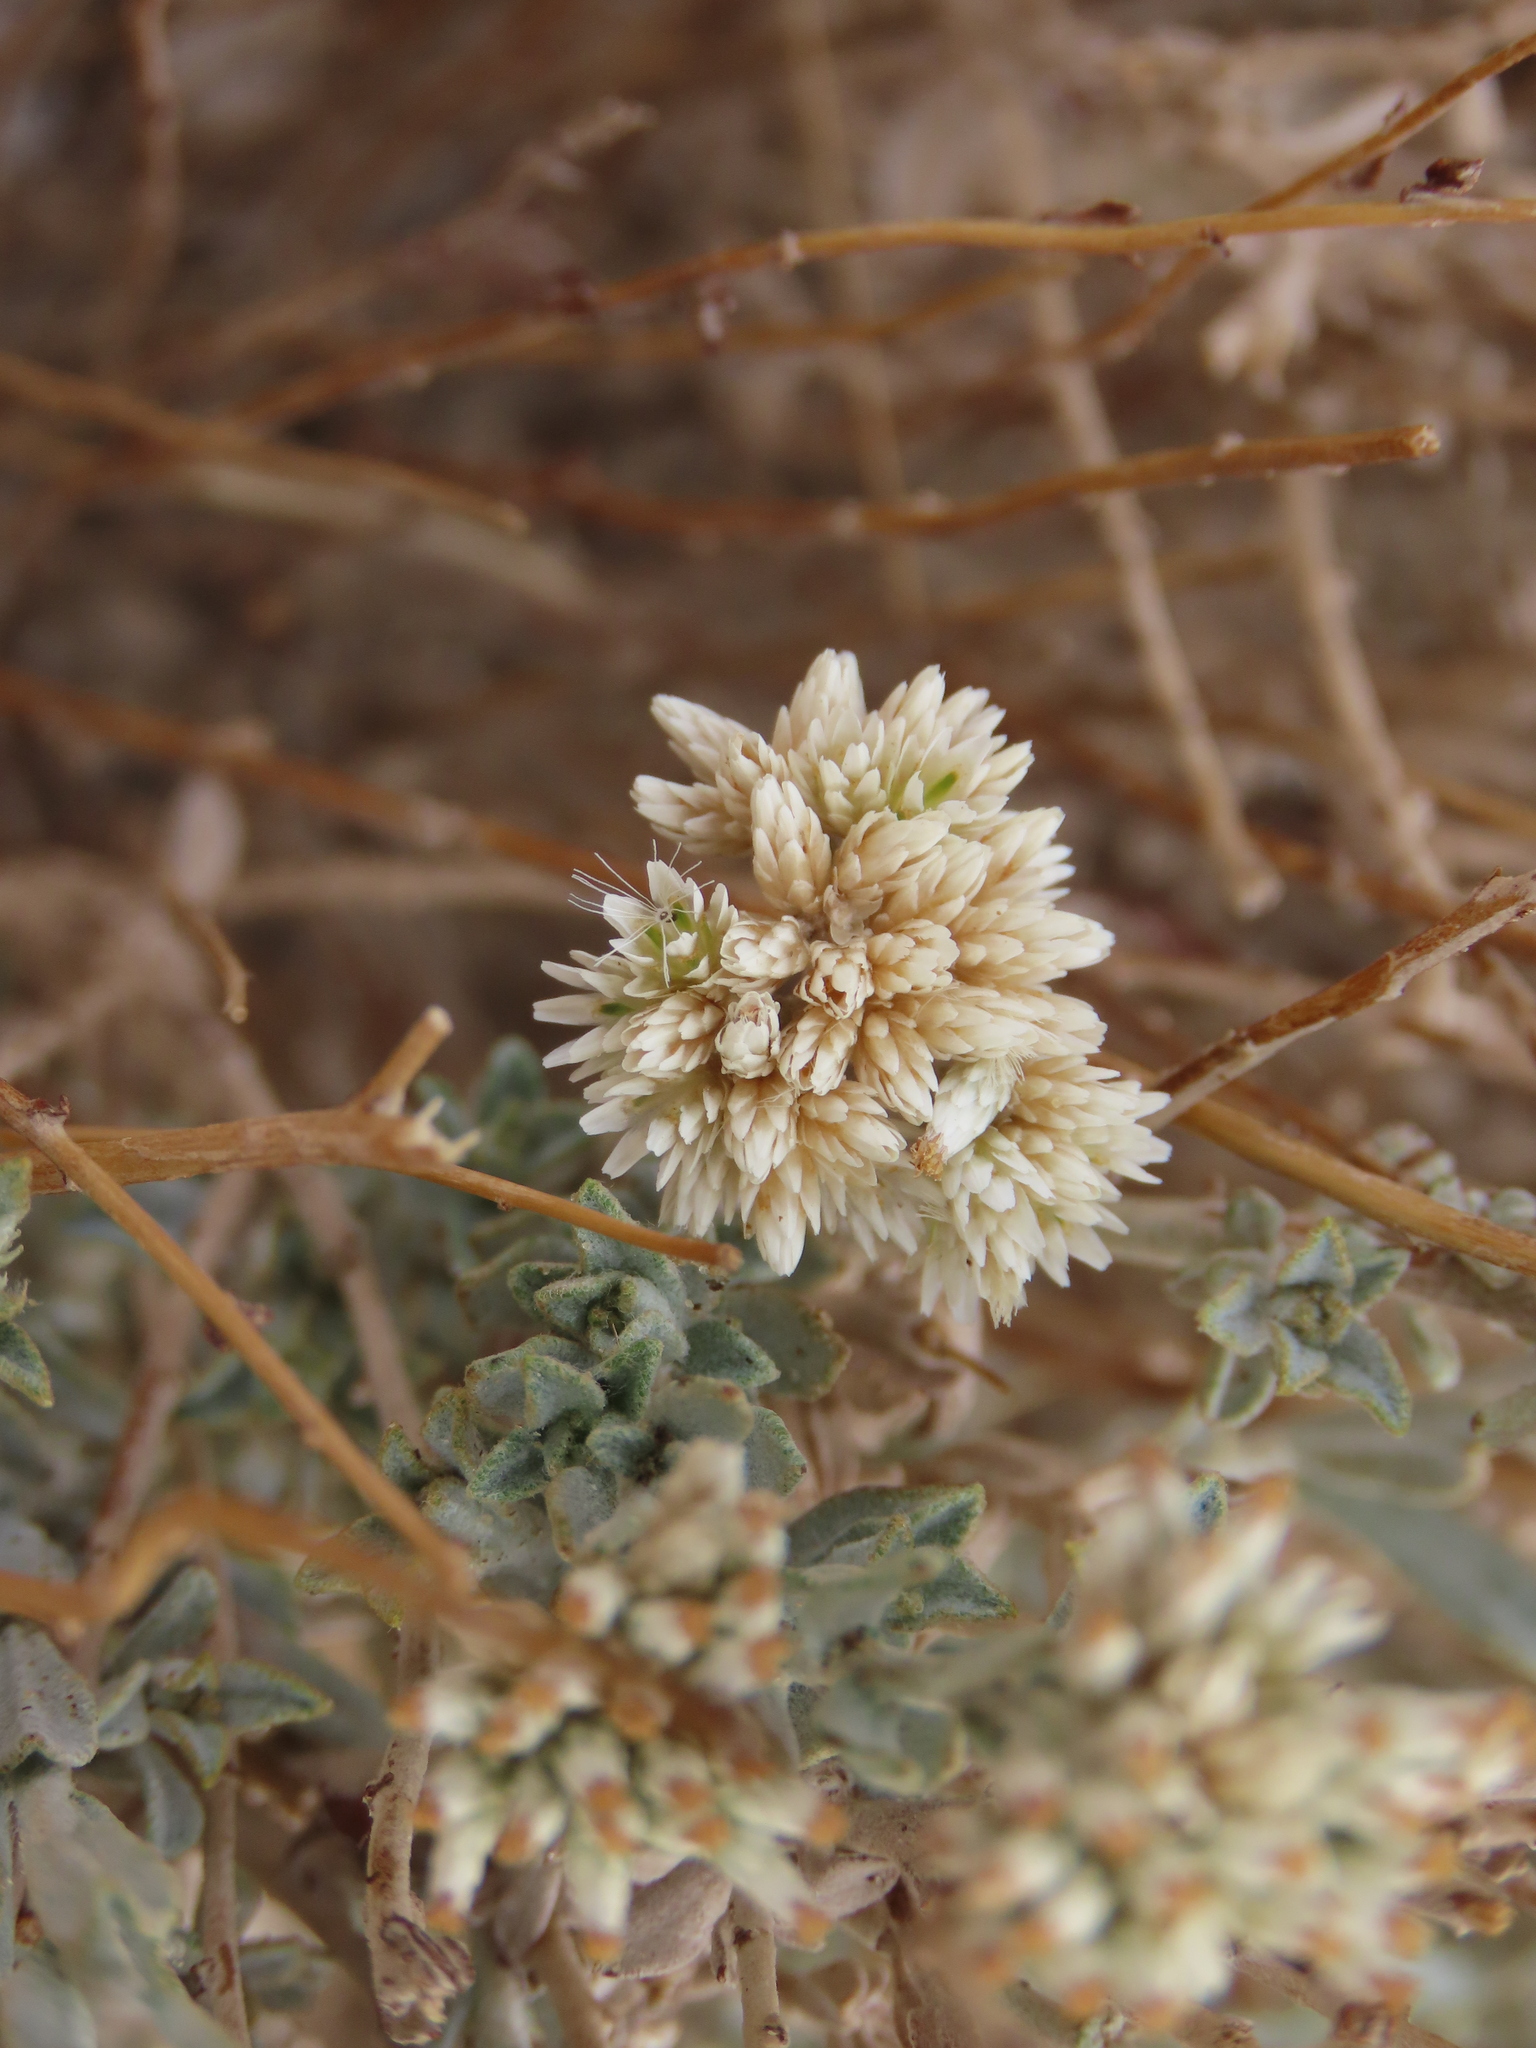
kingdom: Plantae
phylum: Tracheophyta
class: Magnoliopsida
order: Asterales
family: Asteraceae
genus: Helichrysum
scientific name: Helichrysum zeyheri
